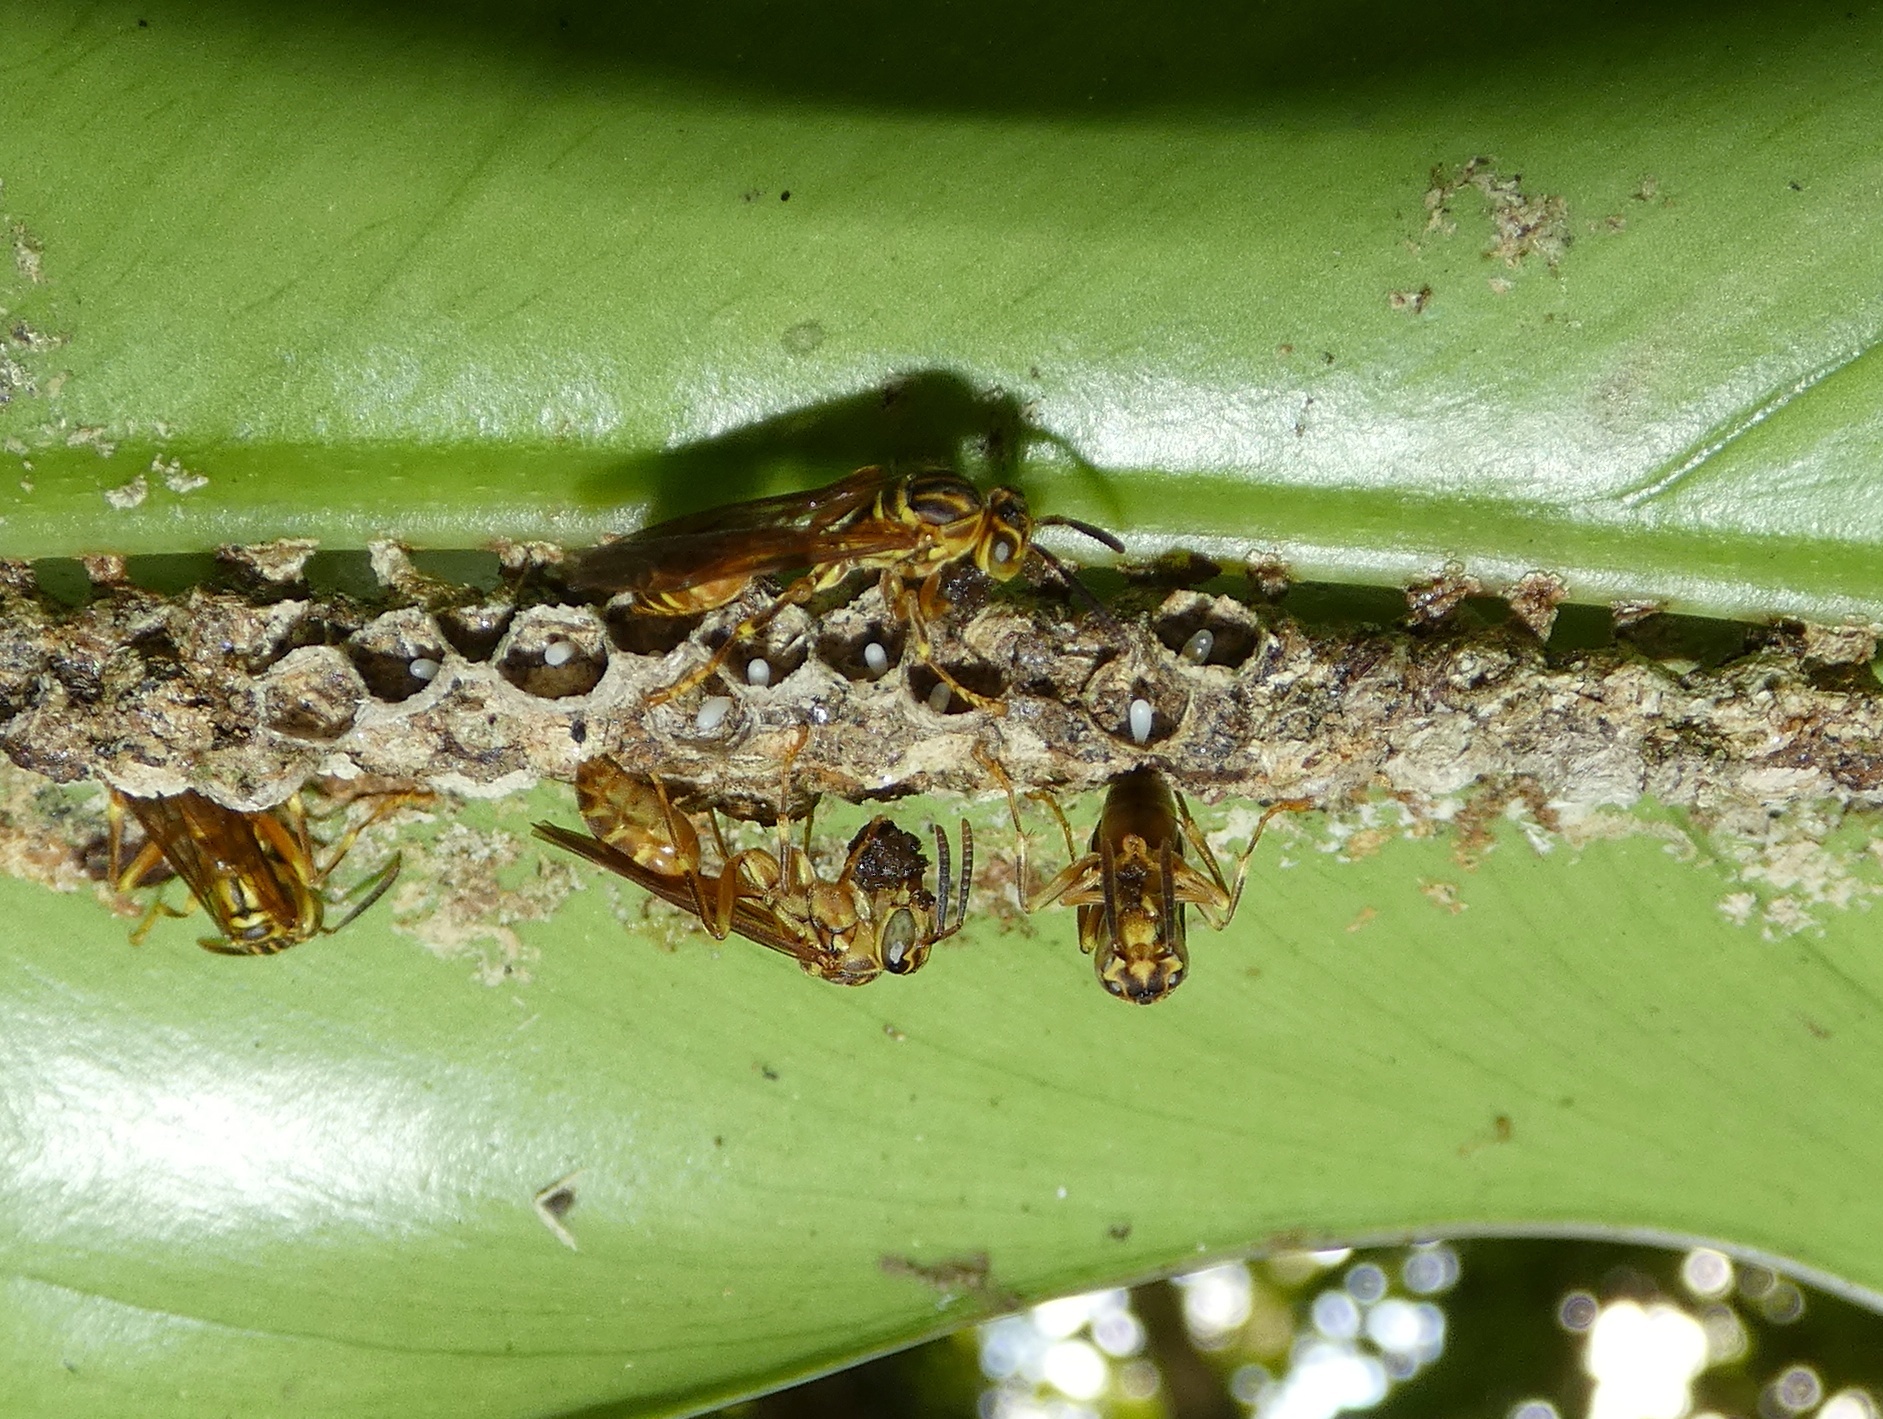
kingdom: Animalia
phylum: Arthropoda
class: Insecta
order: Hymenoptera
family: Vespidae
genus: Mischocyttarus
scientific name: Mischocyttarus fraudulentus
